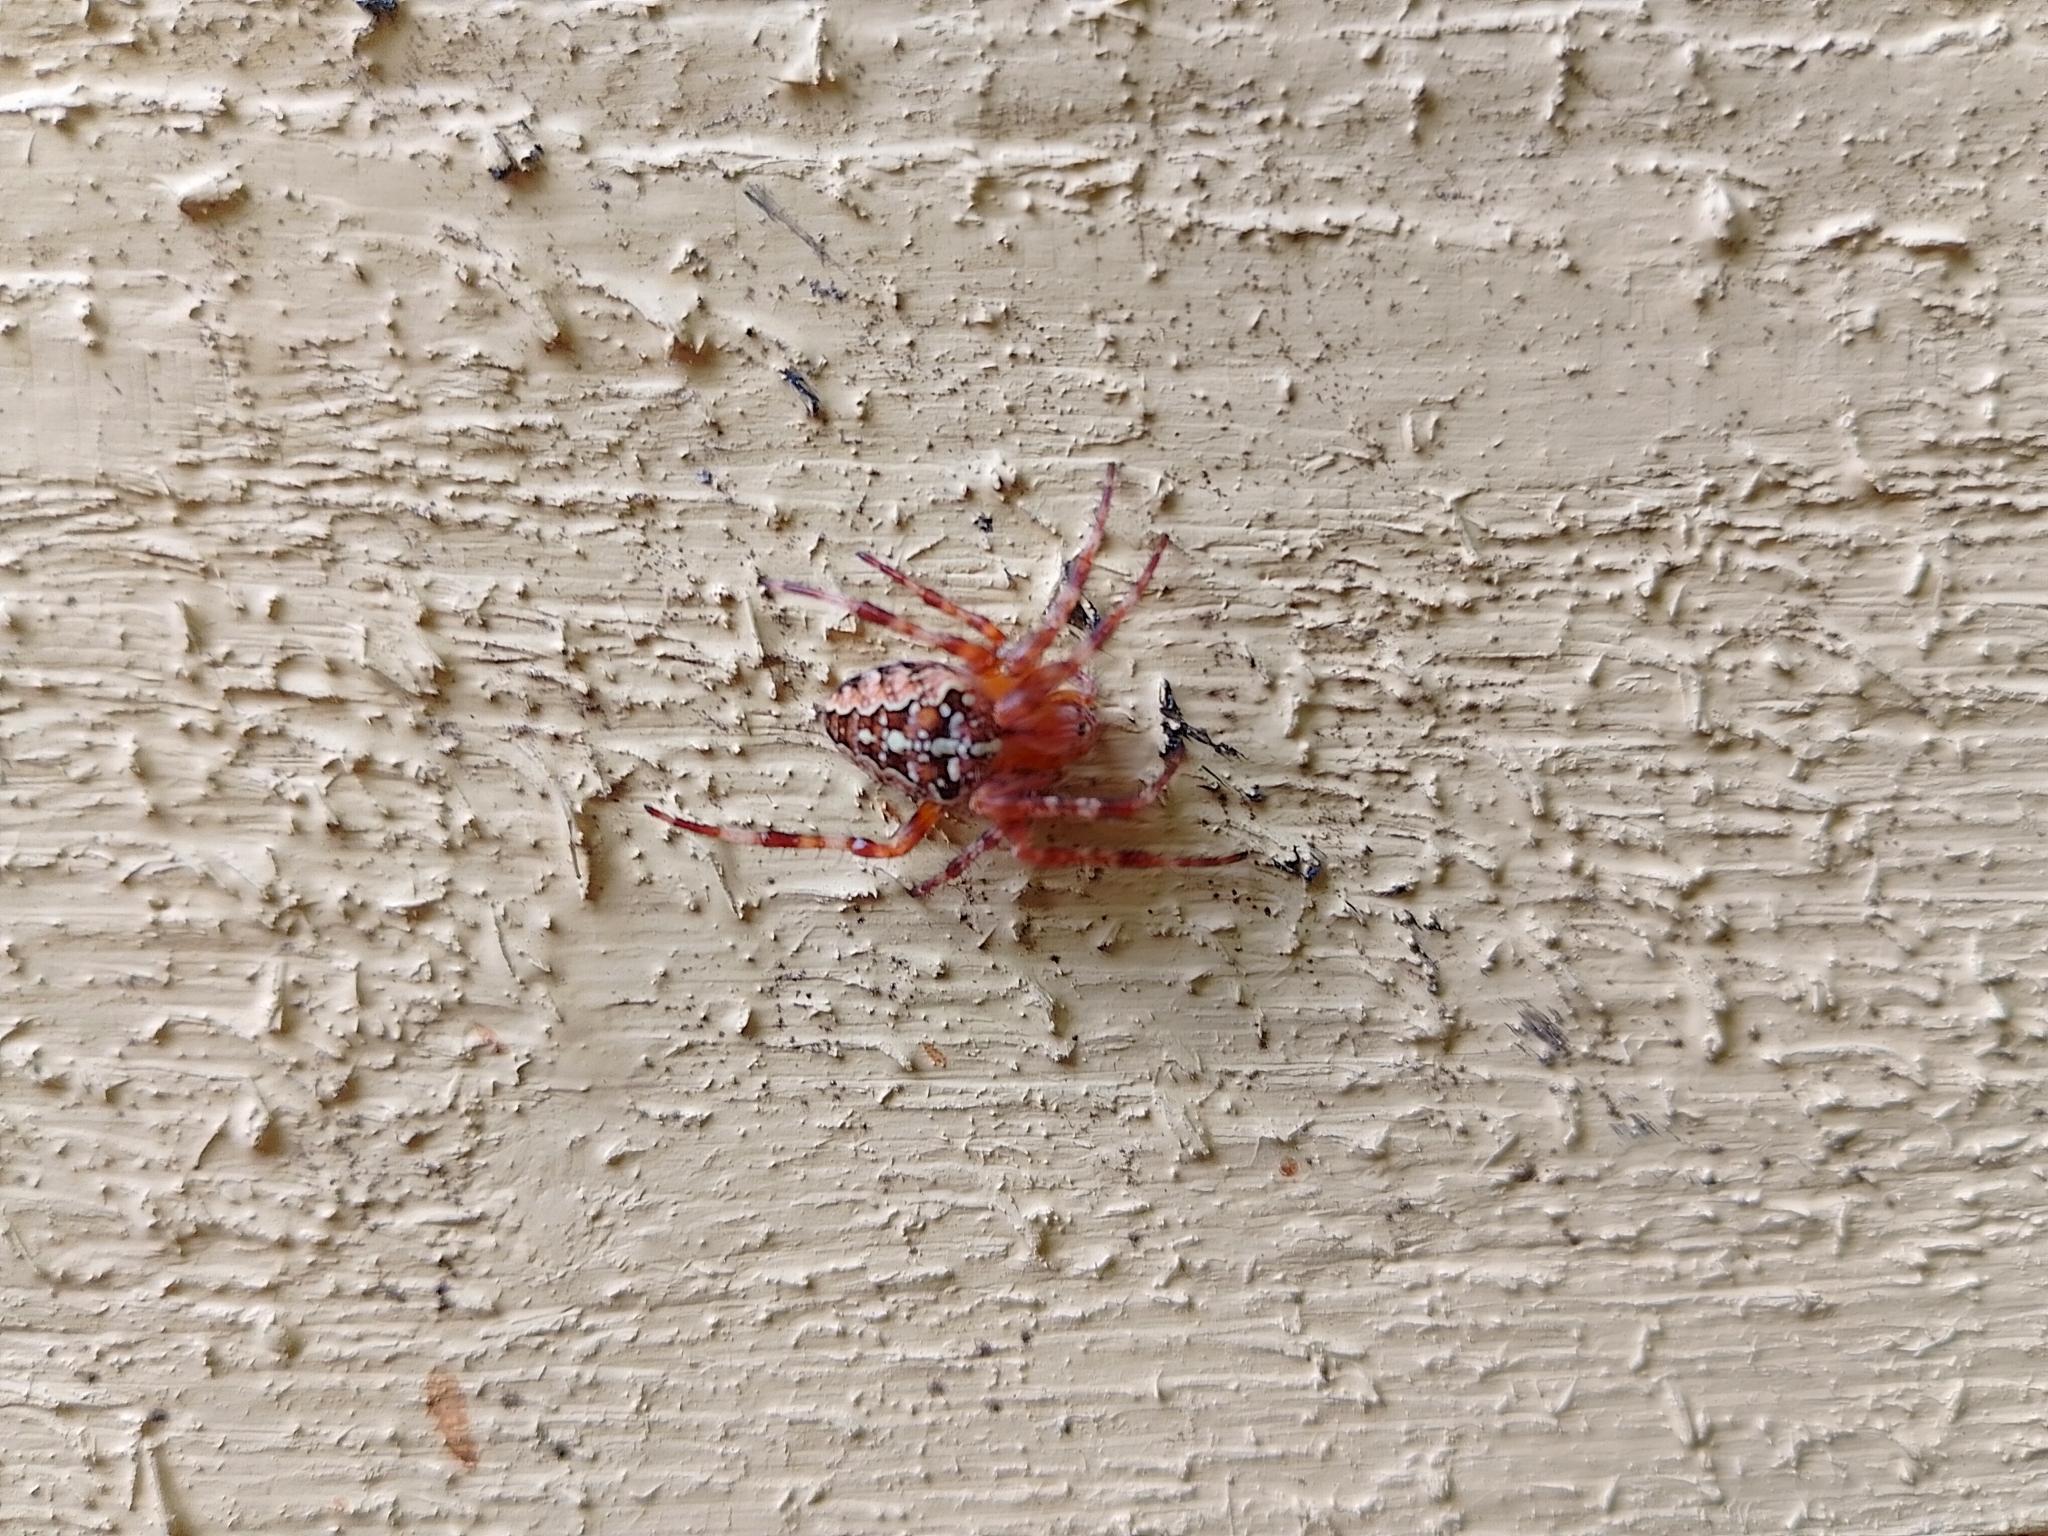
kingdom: Animalia
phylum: Arthropoda
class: Arachnida
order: Araneae
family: Araneidae
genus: Araneus
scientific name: Araneus diadematus
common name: Cross orbweaver
